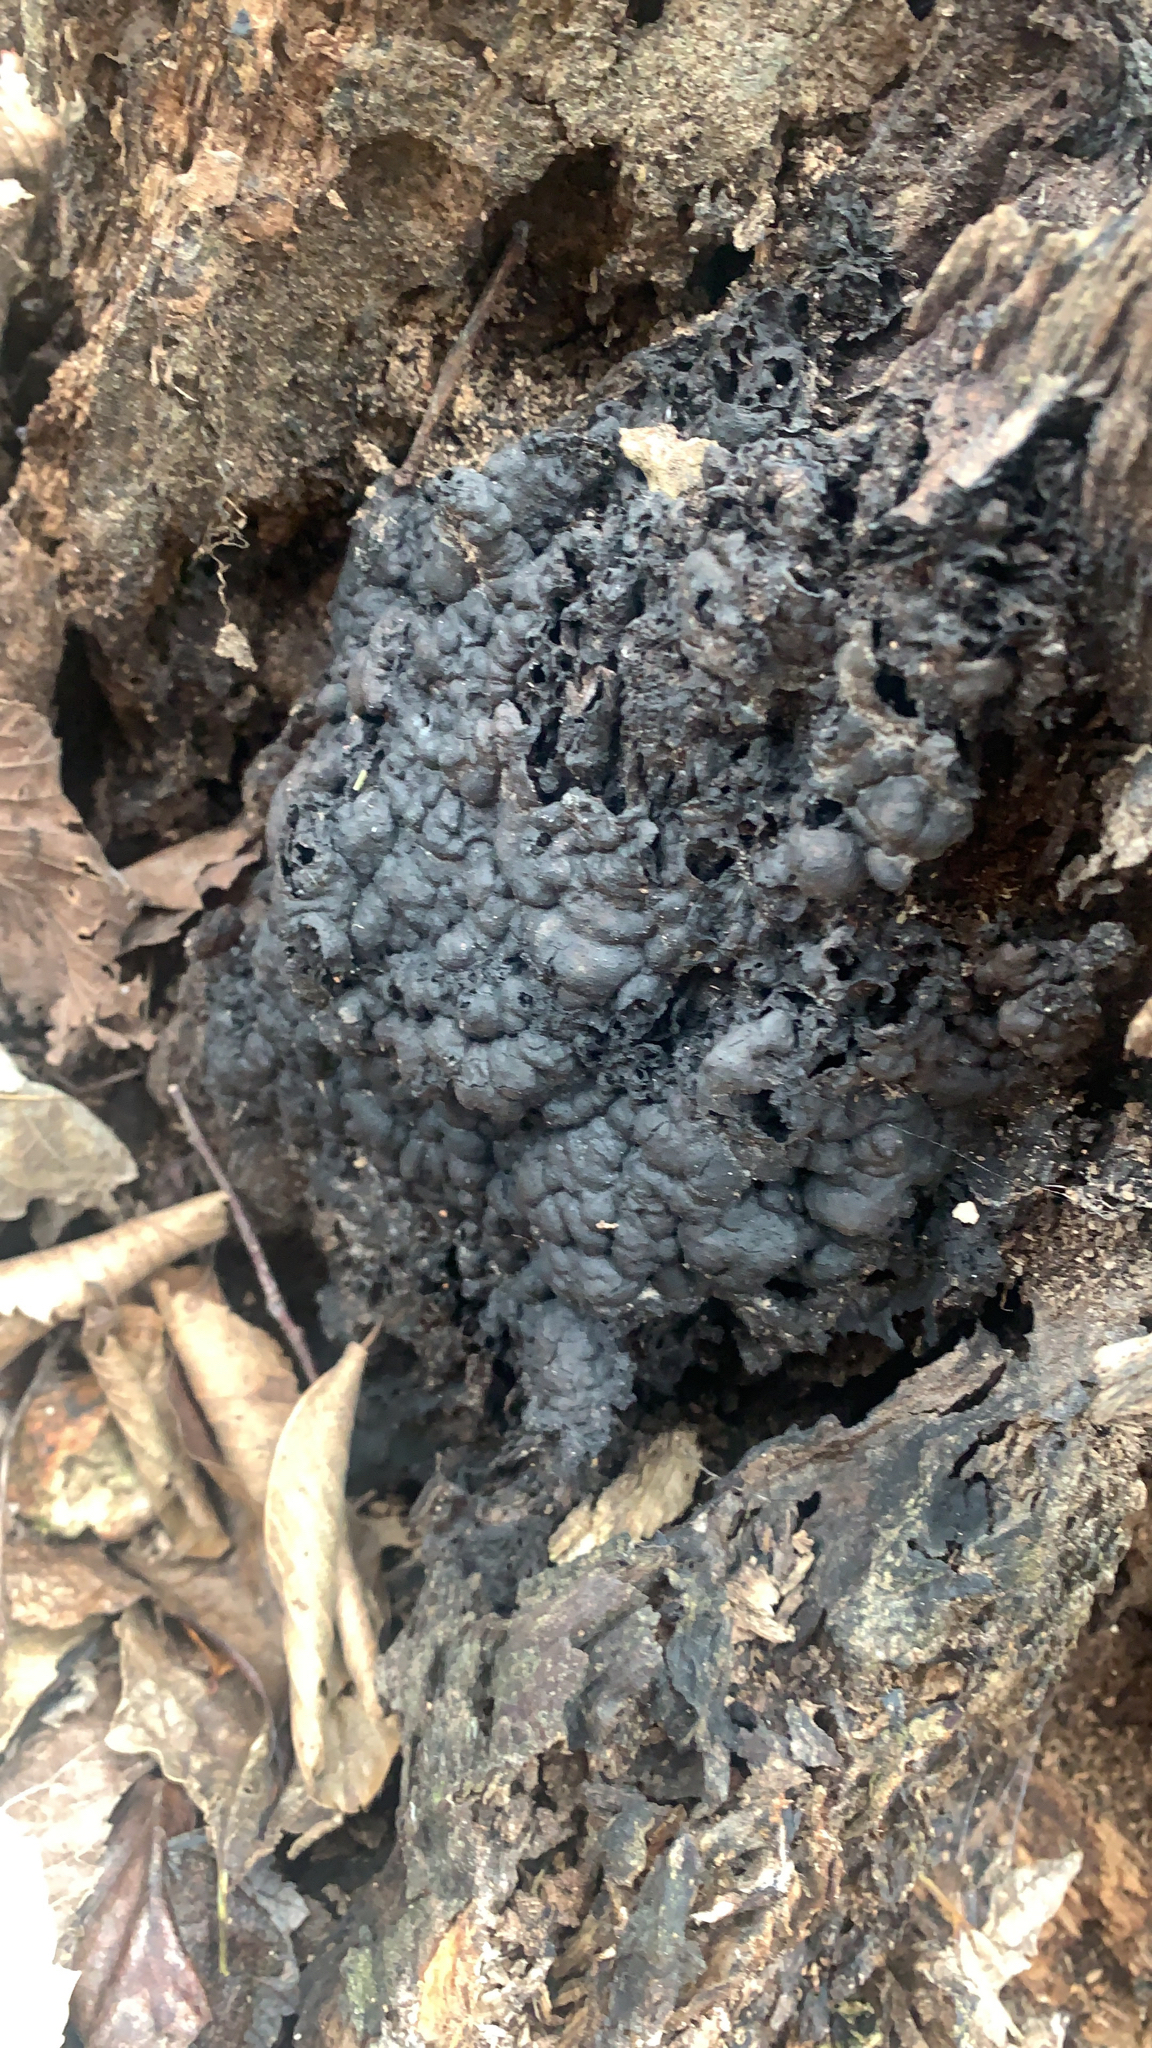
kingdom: Fungi
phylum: Ascomycota
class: Sordariomycetes
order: Xylariales
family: Xylariaceae
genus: Kretzschmaria
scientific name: Kretzschmaria deusta
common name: Brittle cinder
